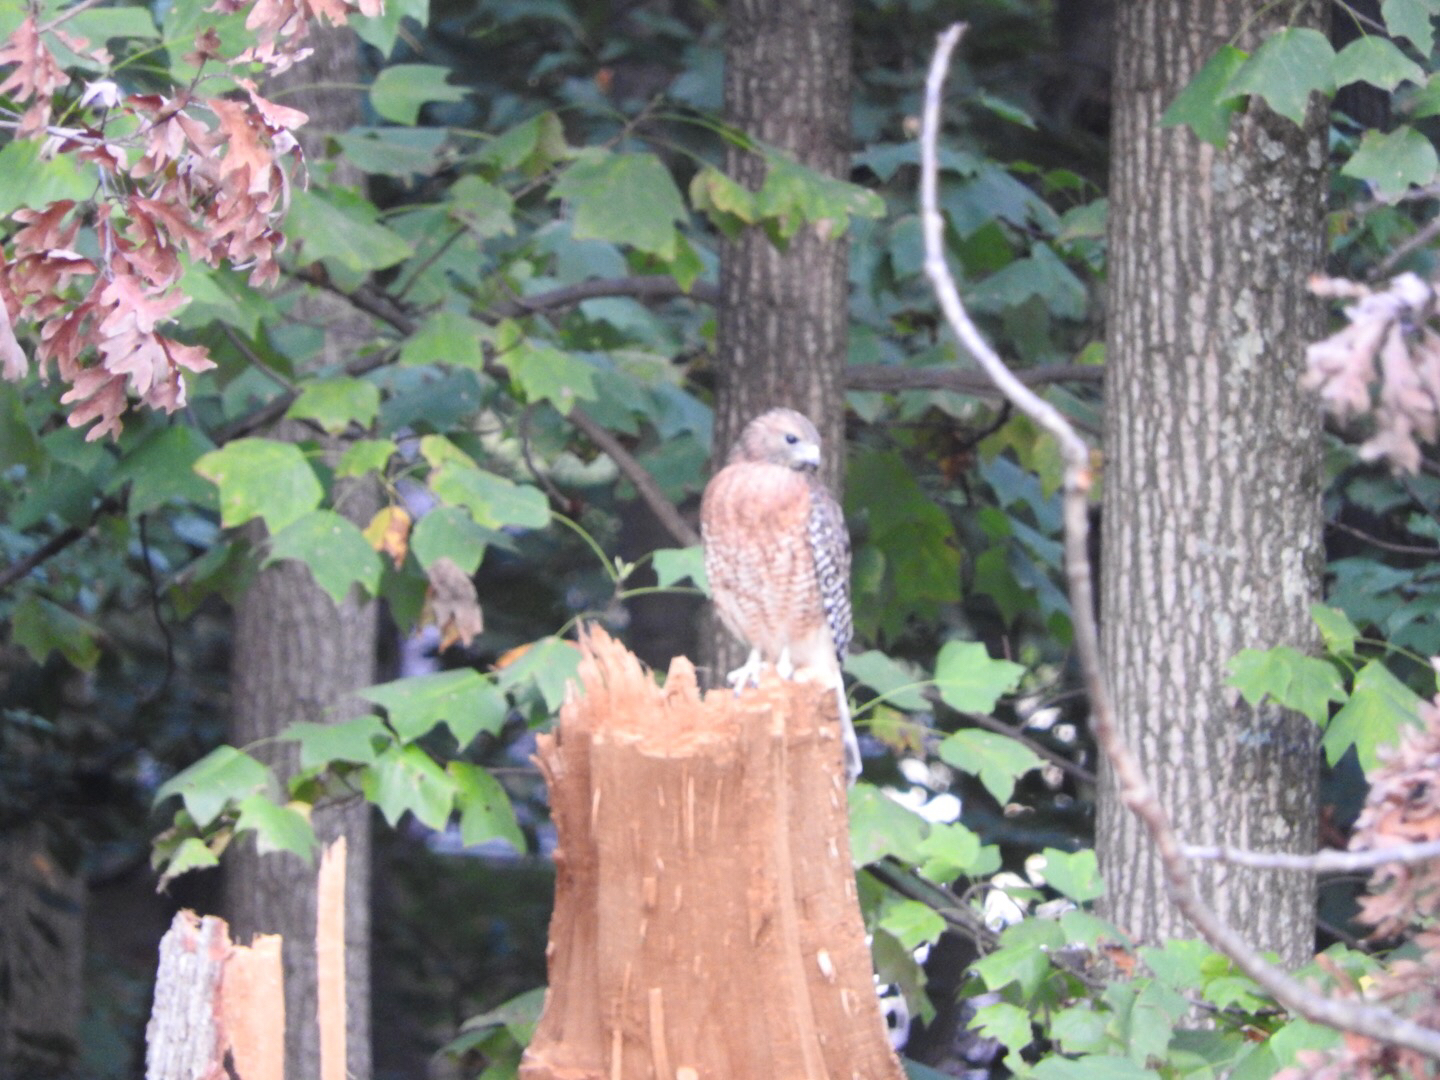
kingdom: Animalia
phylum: Chordata
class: Aves
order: Accipitriformes
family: Accipitridae
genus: Buteo
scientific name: Buteo lineatus
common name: Red-shouldered hawk
